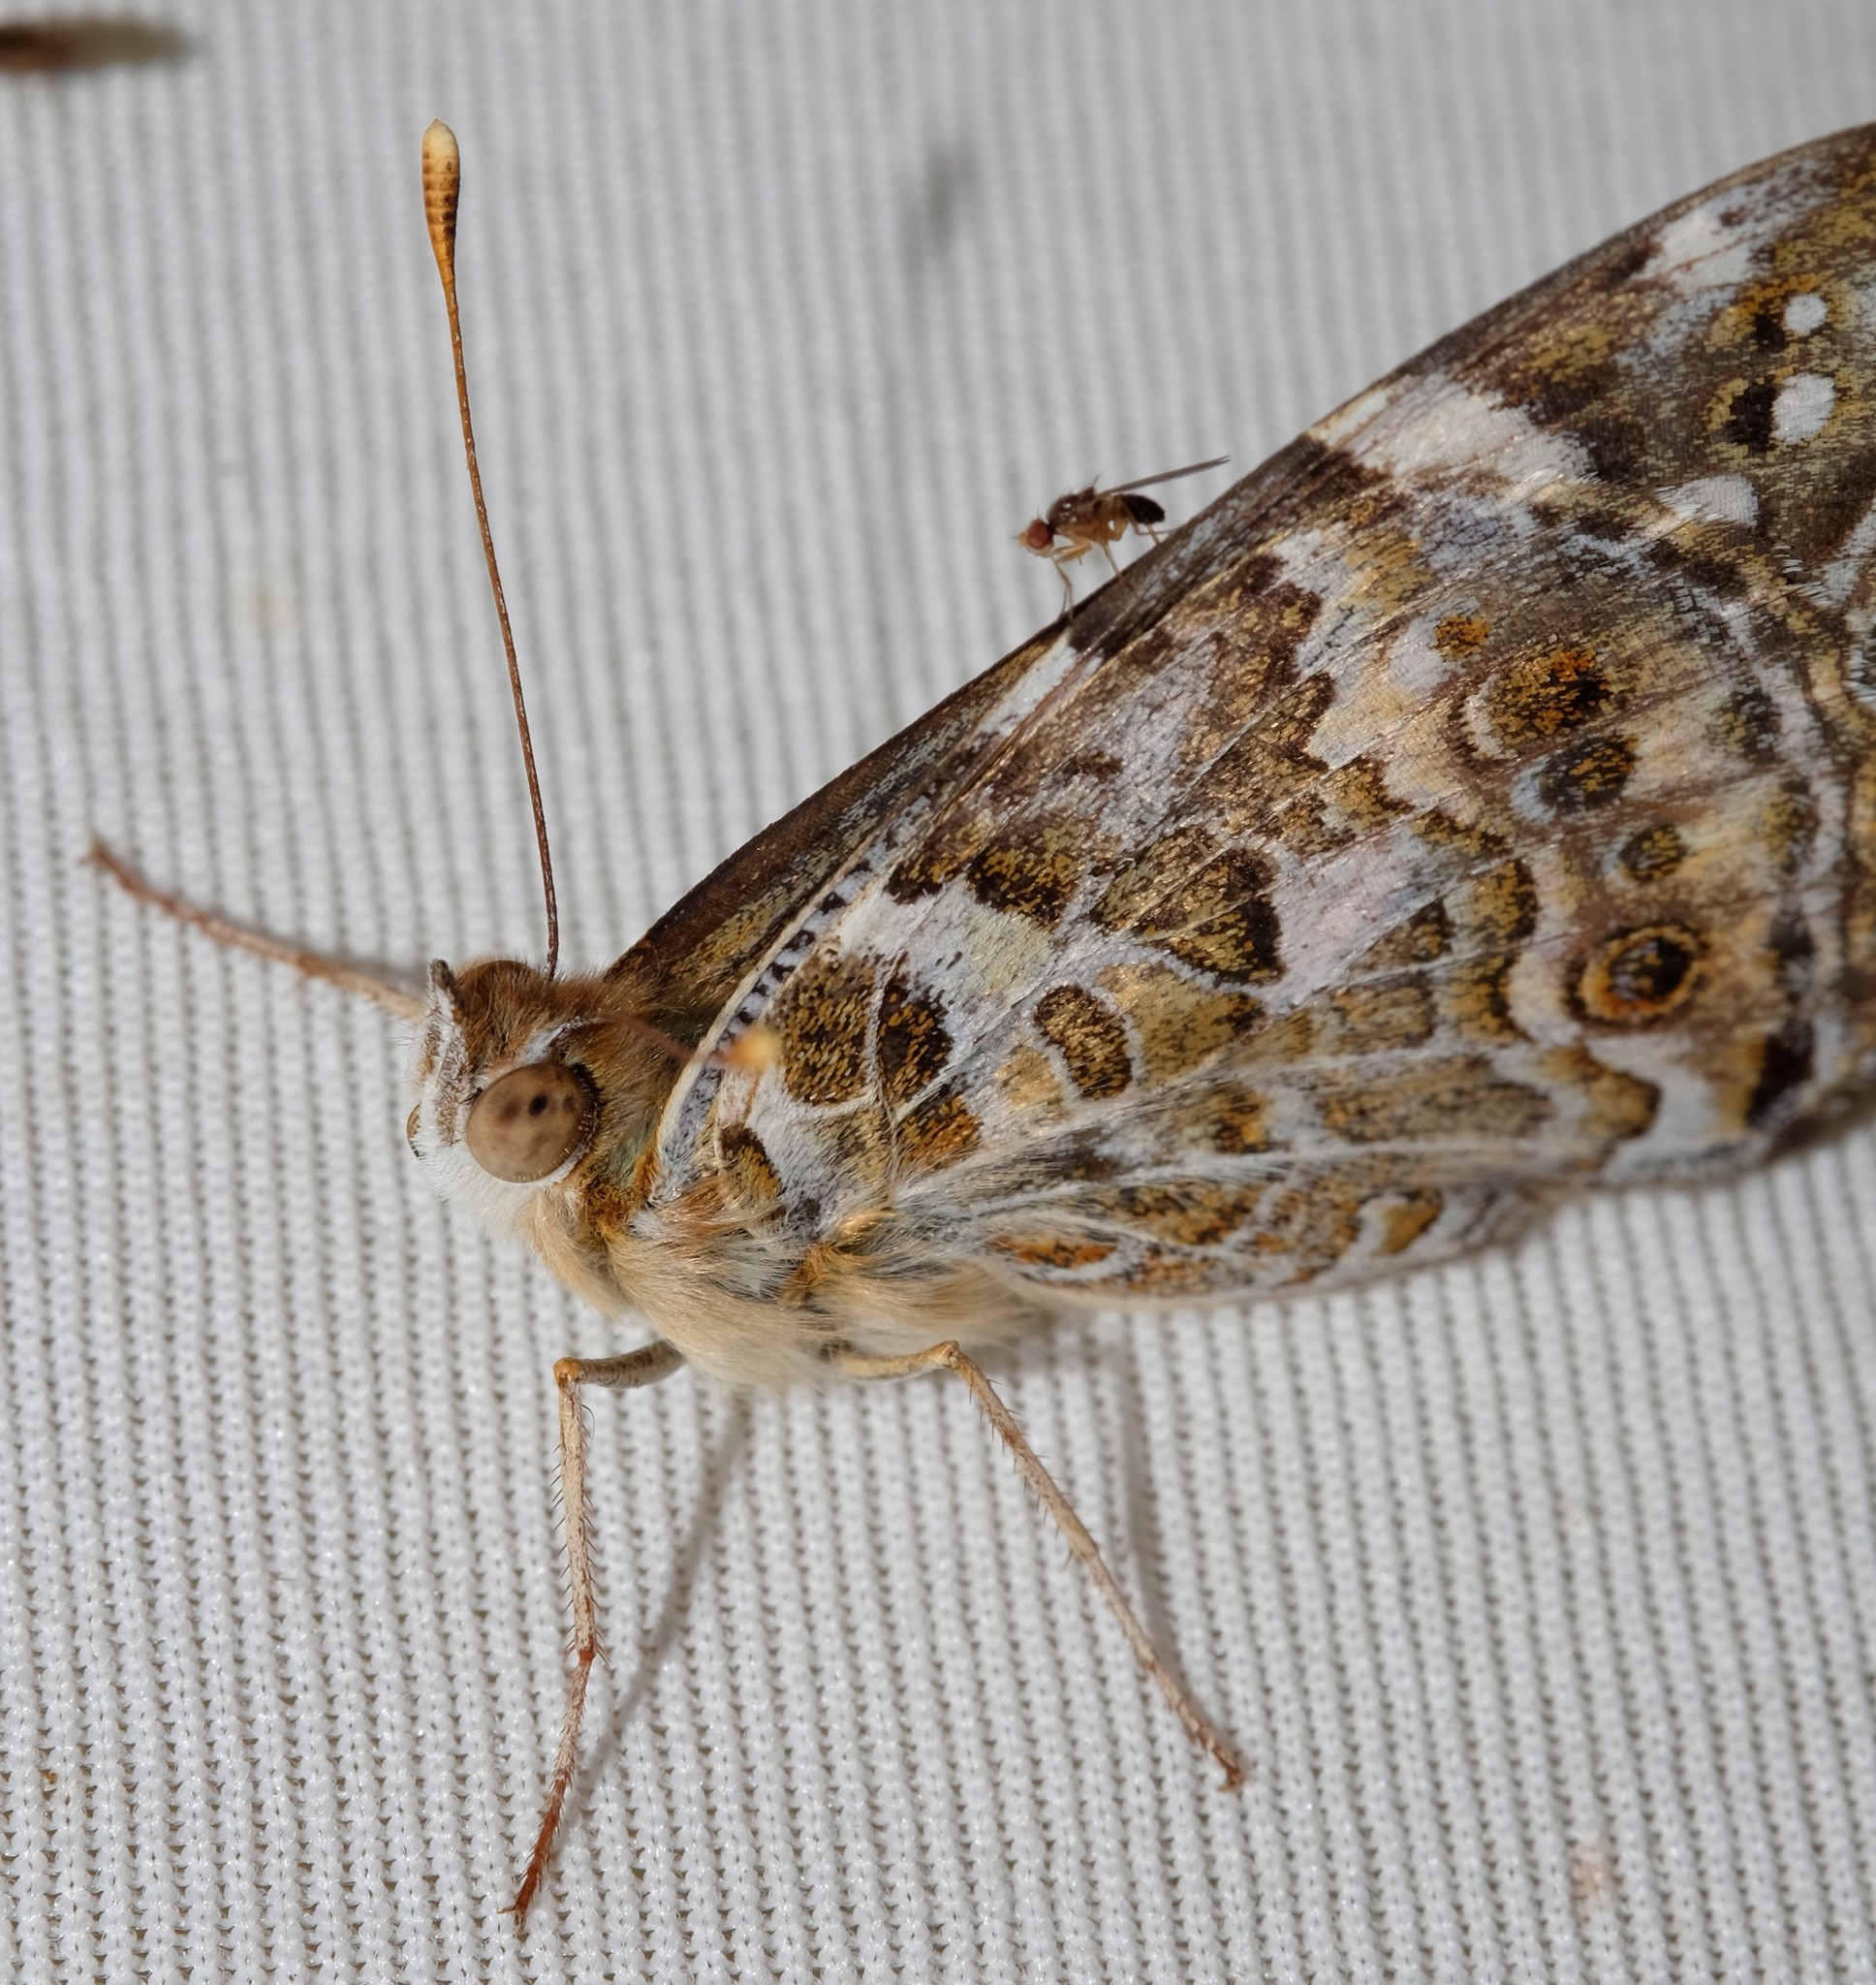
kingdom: Animalia
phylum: Arthropoda
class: Insecta
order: Lepidoptera
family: Nymphalidae
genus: Vanessa
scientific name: Vanessa kershawi
